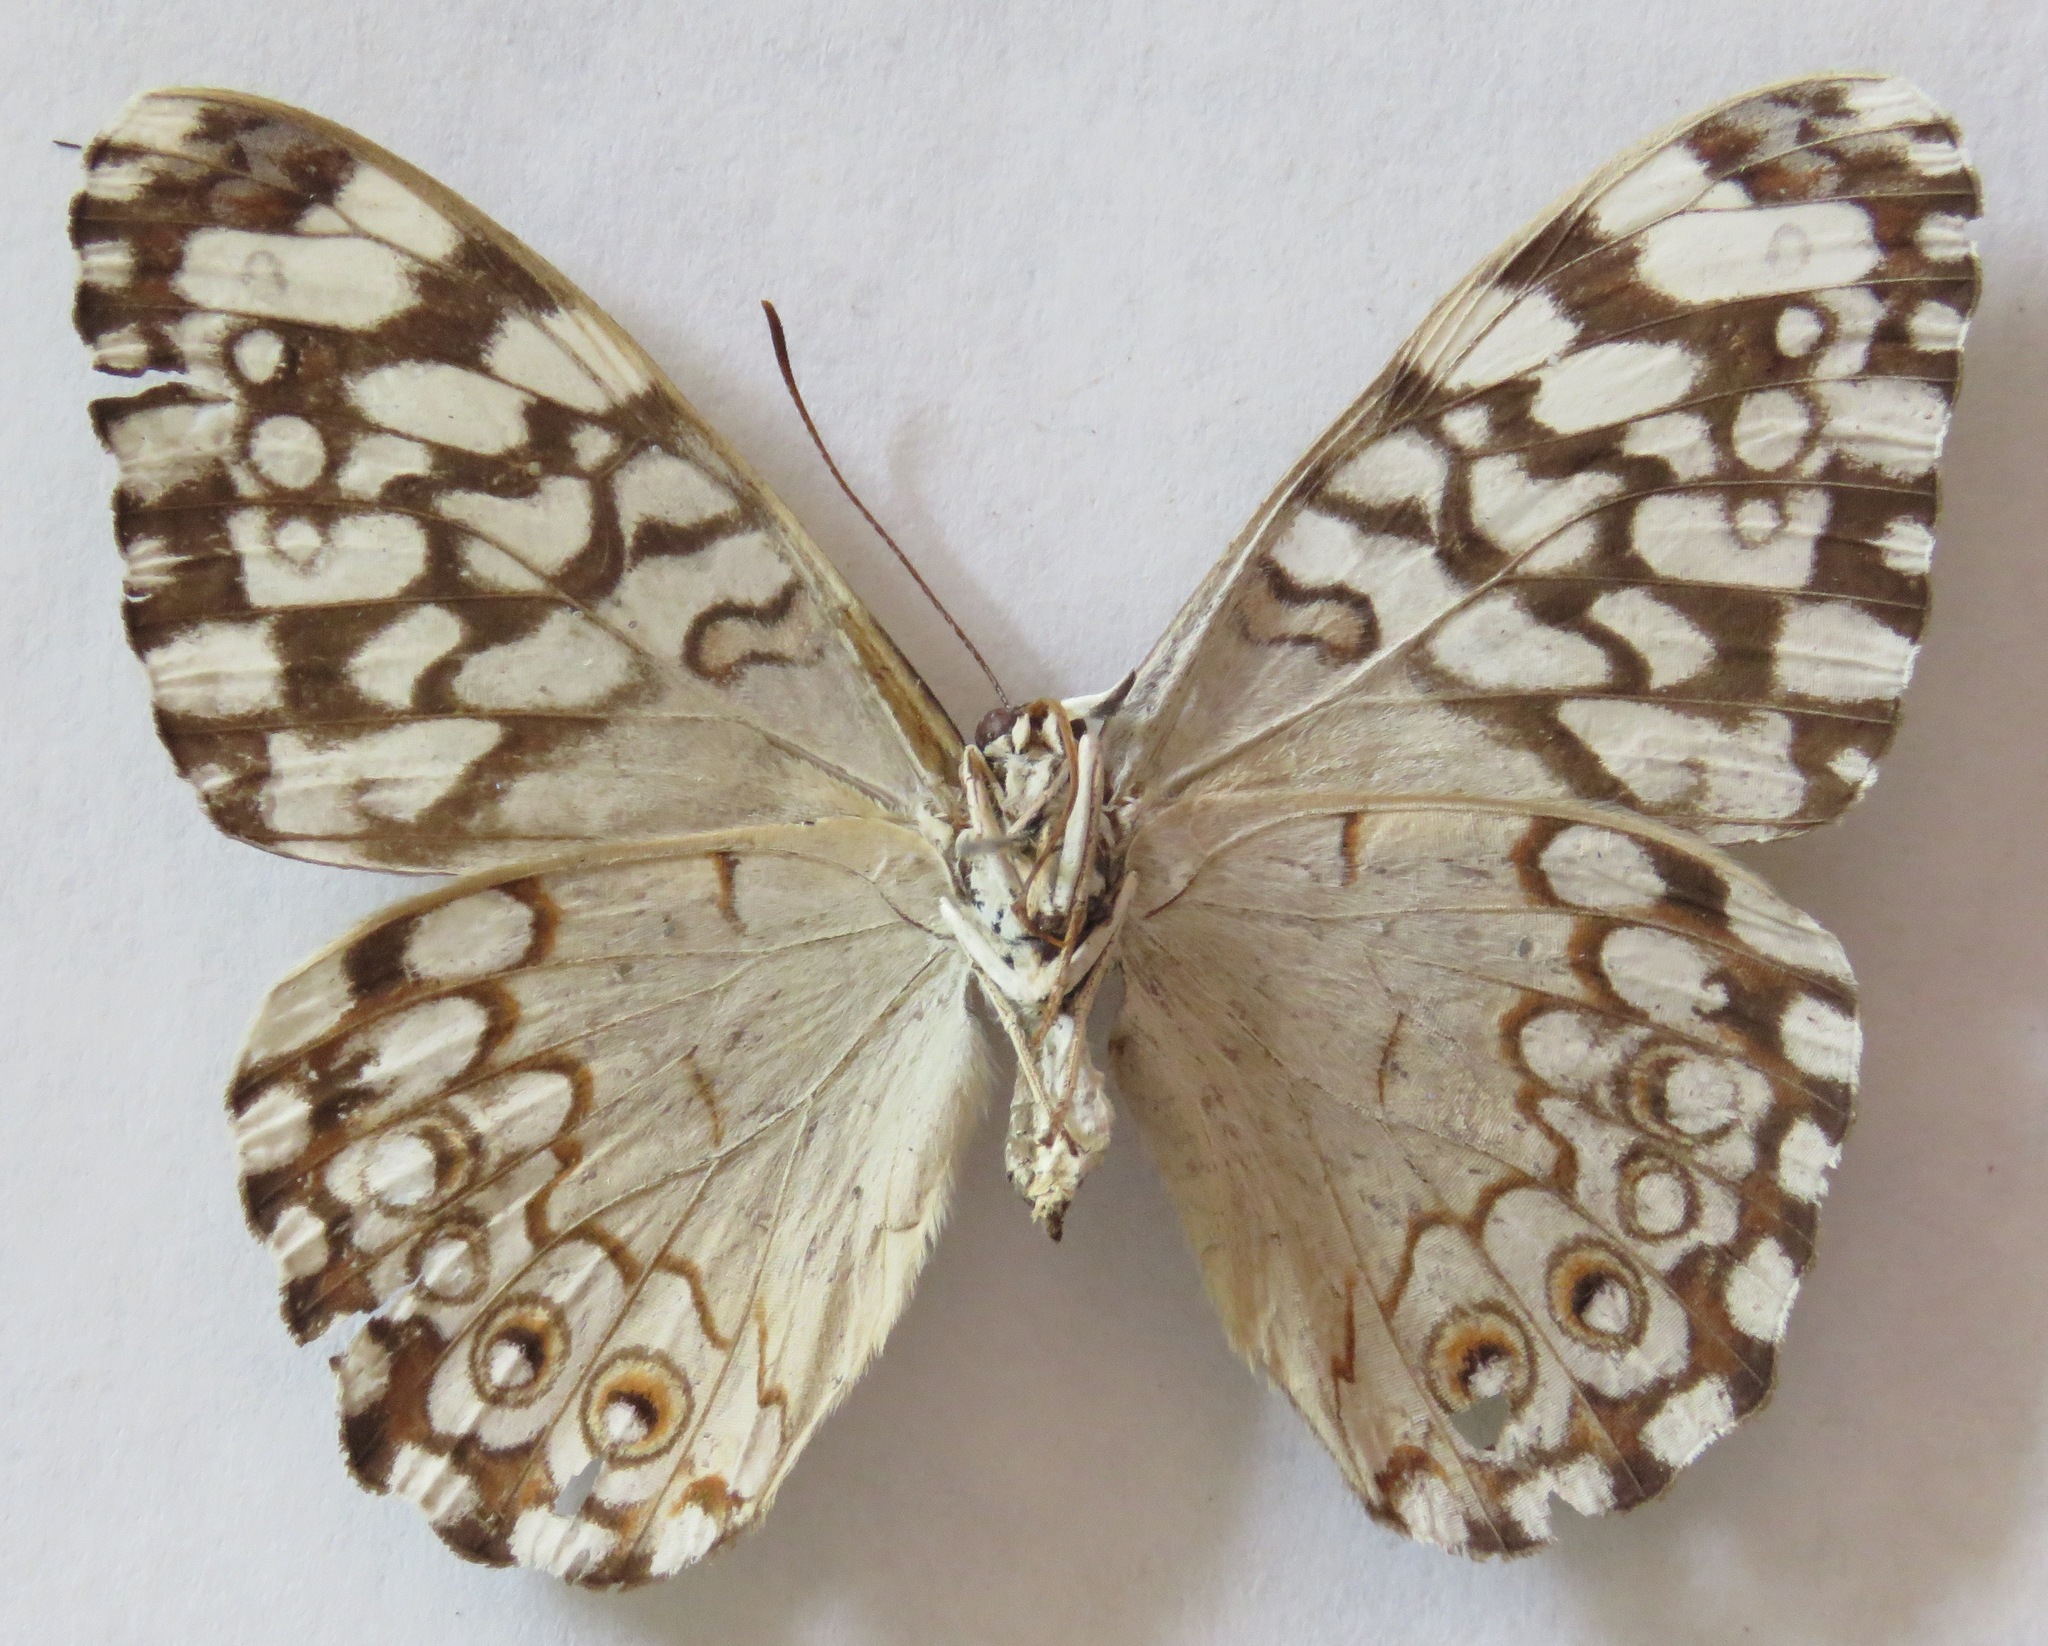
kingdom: Animalia
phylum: Arthropoda
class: Insecta
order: Lepidoptera
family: Nymphalidae
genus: Hamadryas
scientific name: Hamadryas februa
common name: Gray cracker
